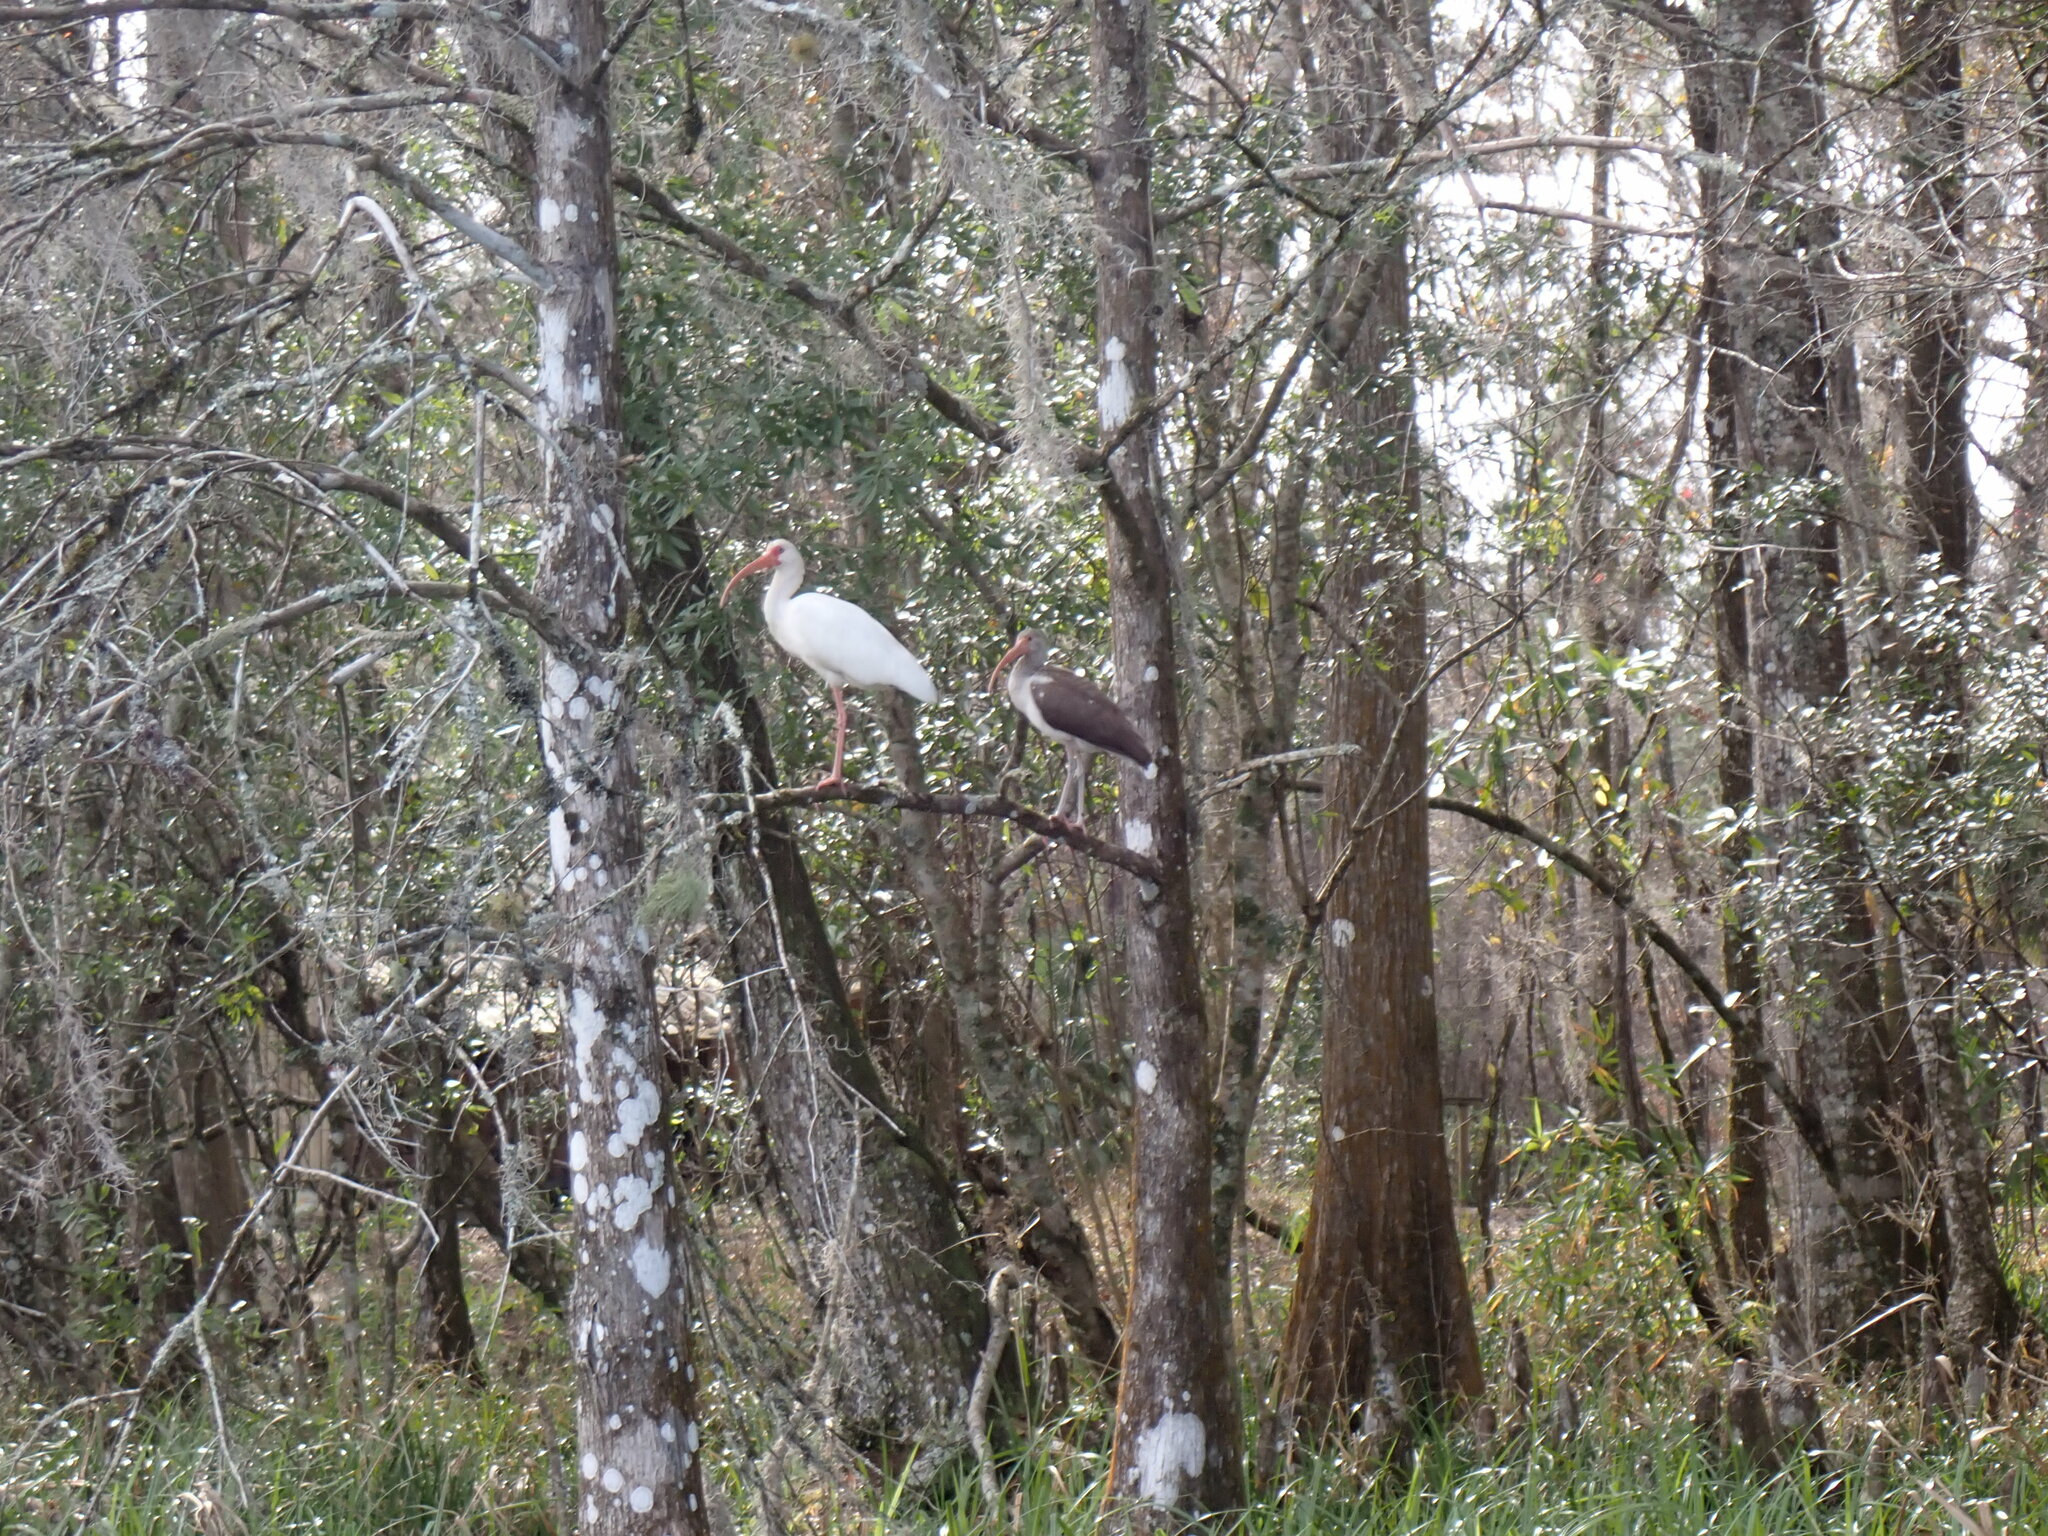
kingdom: Animalia
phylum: Chordata
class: Aves
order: Pelecaniformes
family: Threskiornithidae
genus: Eudocimus
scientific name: Eudocimus albus
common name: White ibis
